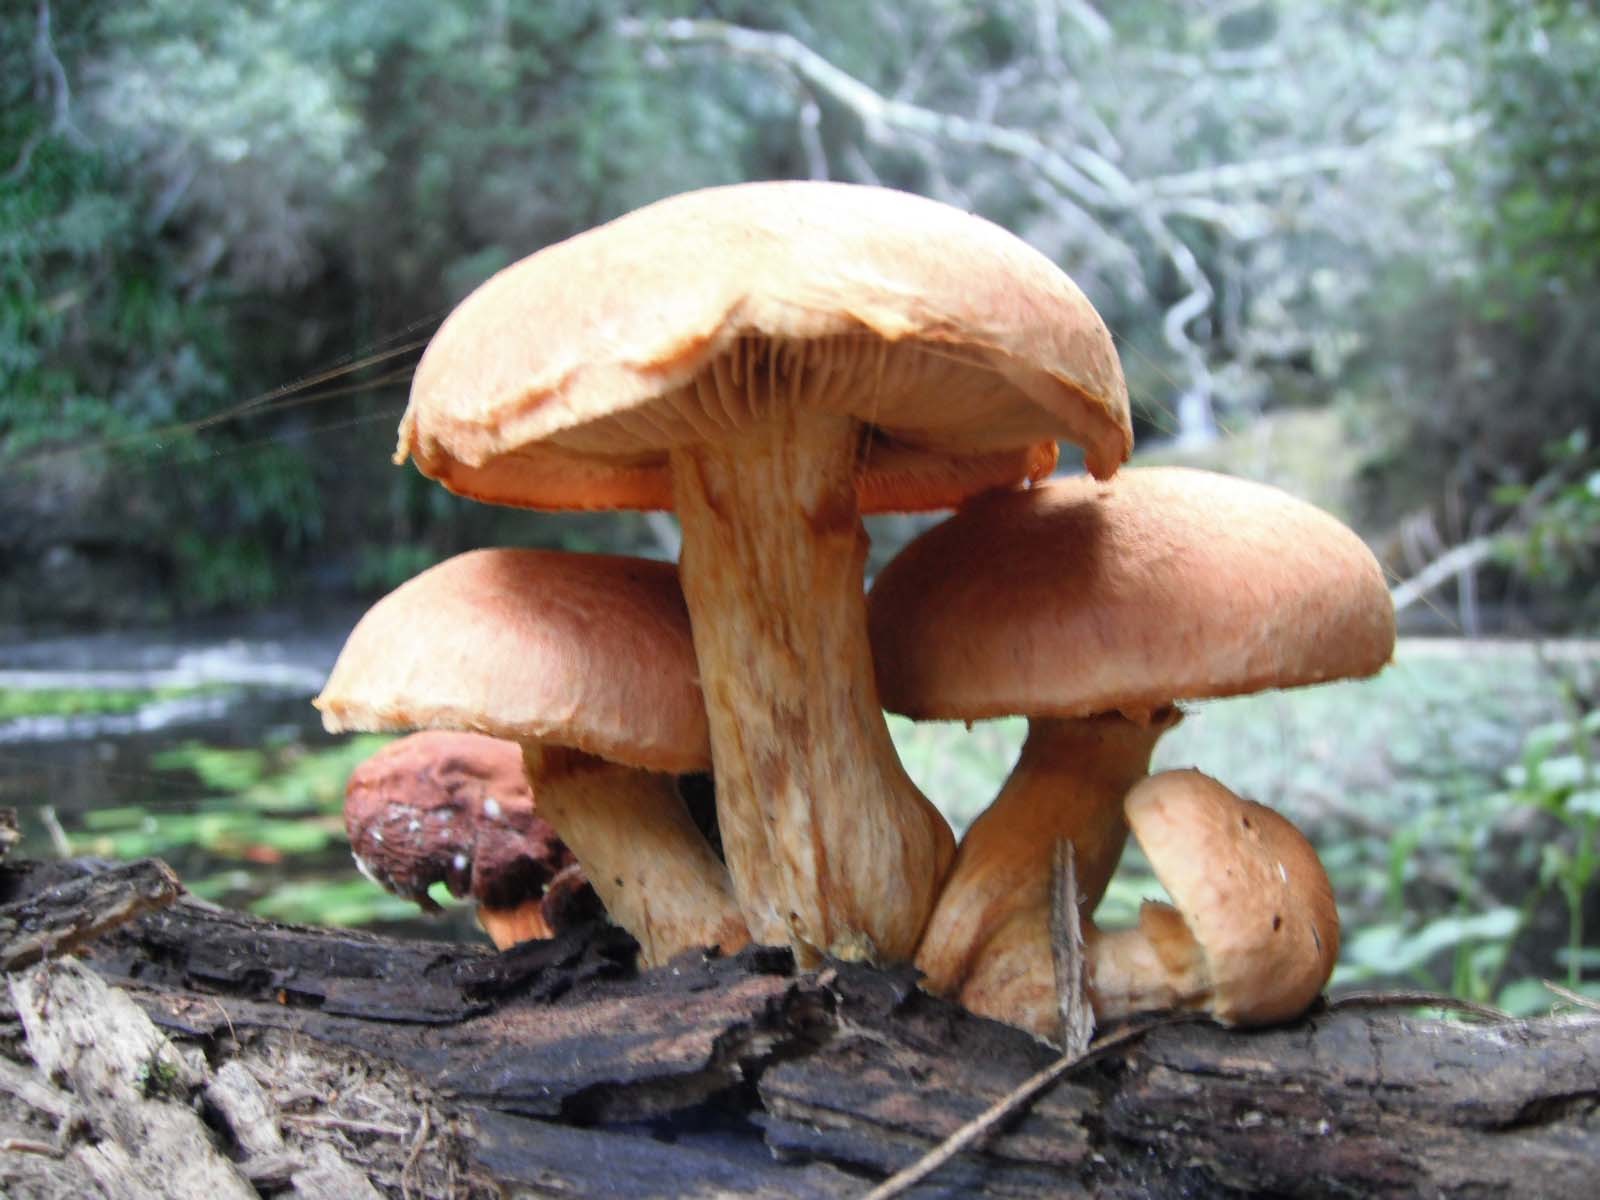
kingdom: Fungi
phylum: Basidiomycota
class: Agaricomycetes
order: Agaricales
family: Hymenogastraceae
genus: Gymnopilus
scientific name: Gymnopilus junonius
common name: Spectacular rustgill
